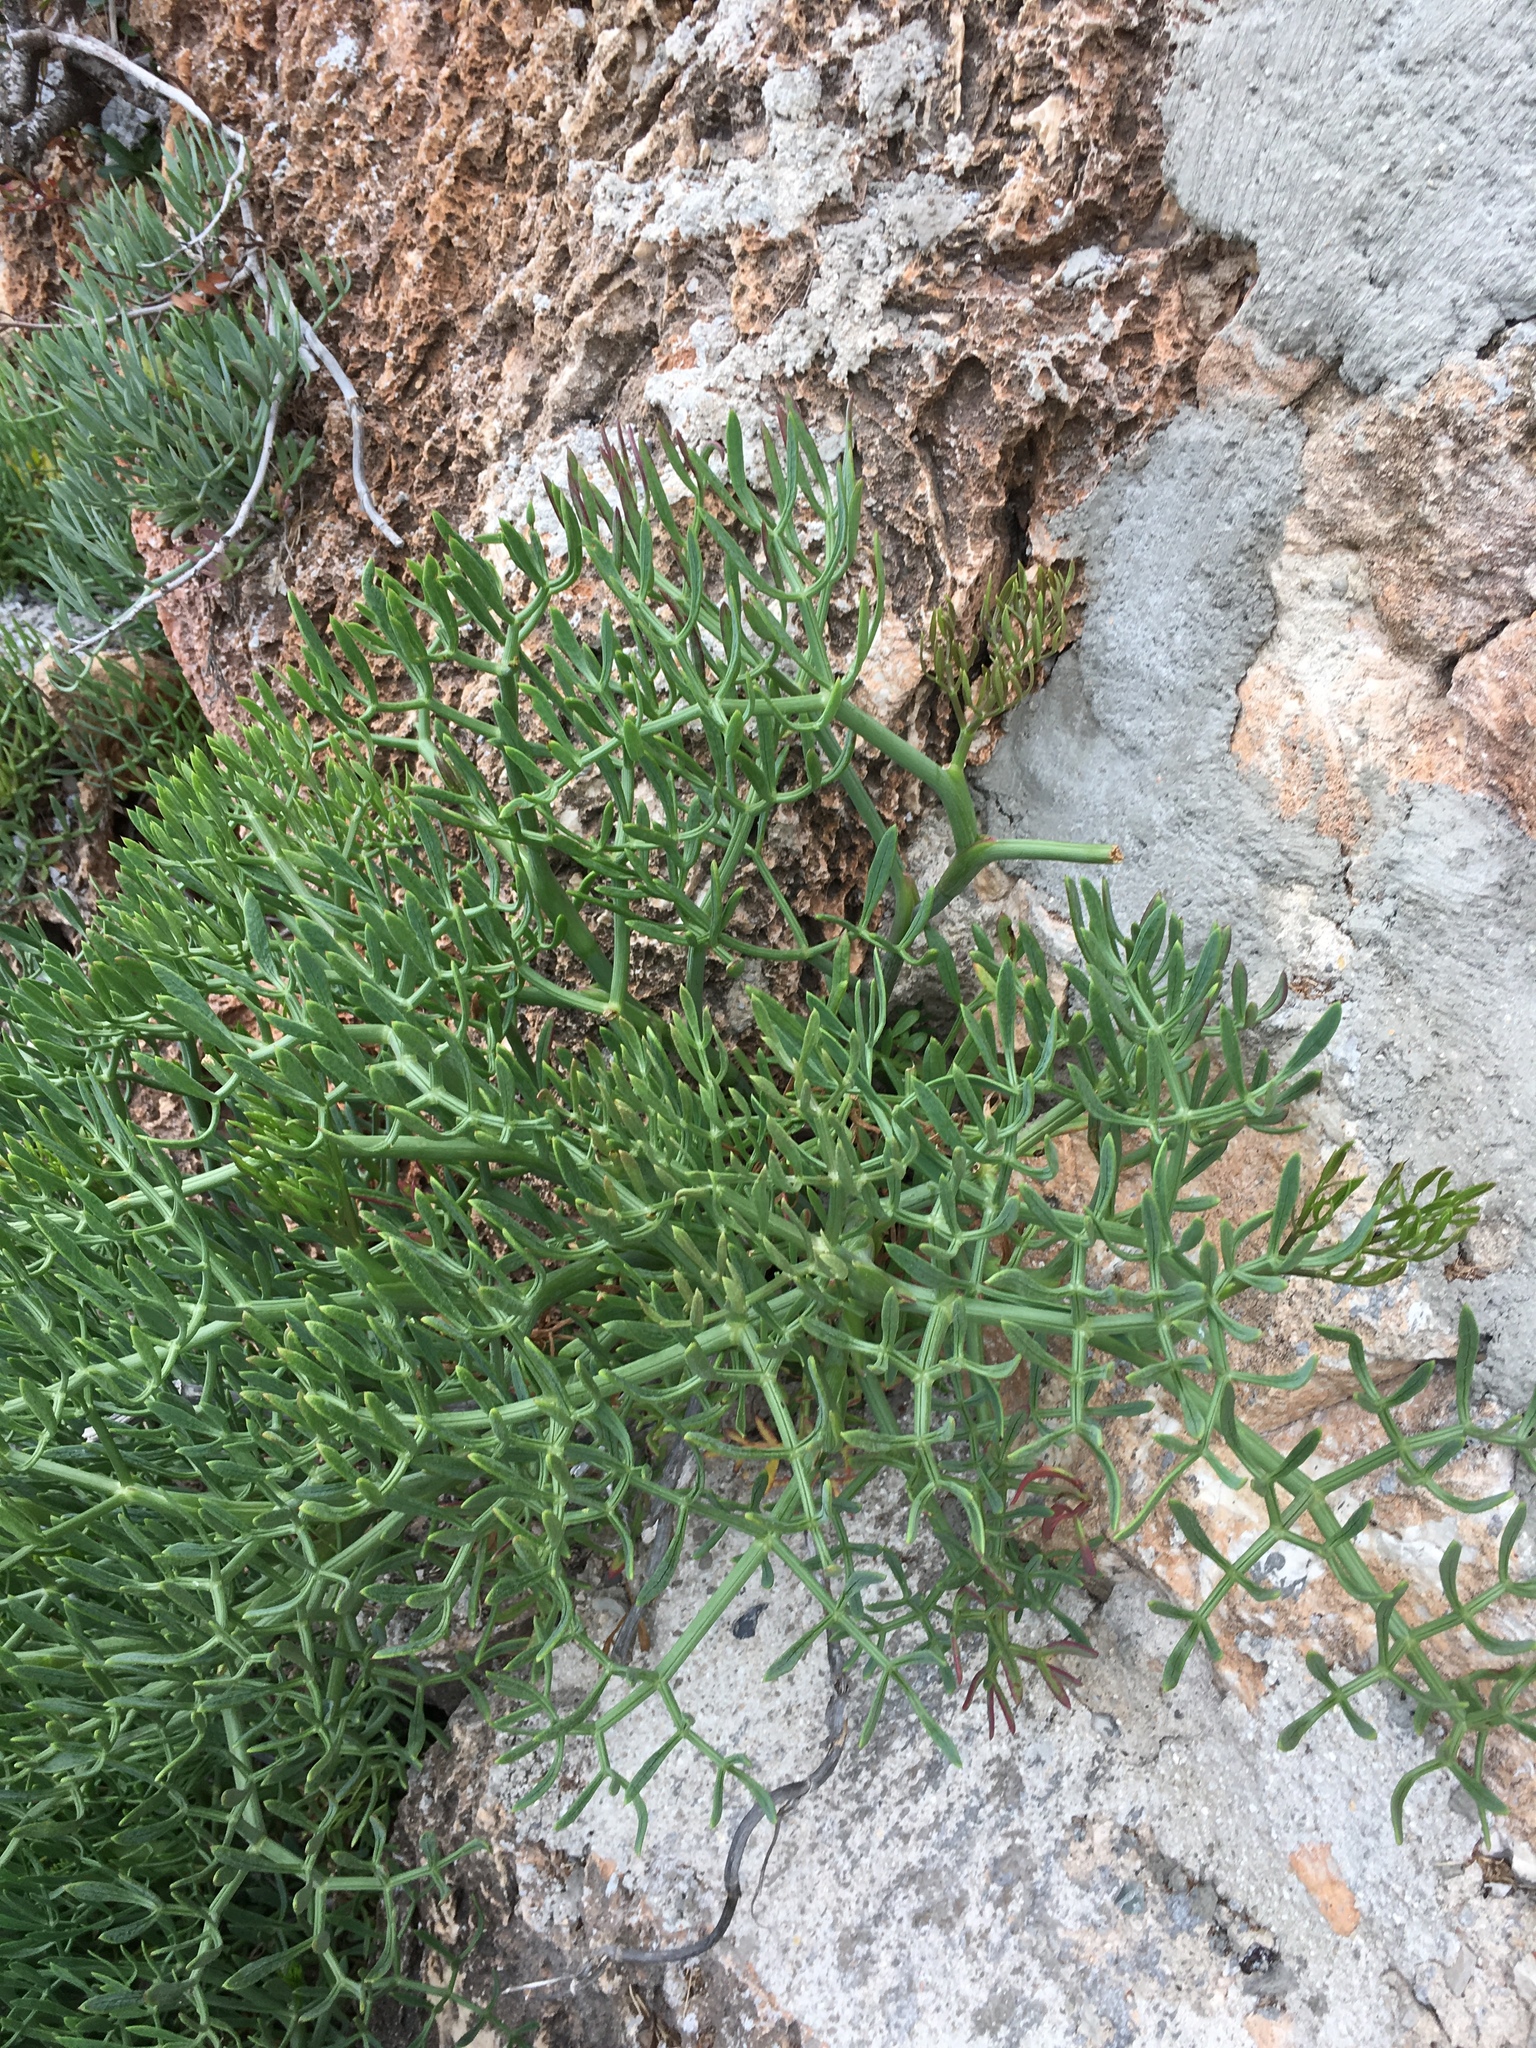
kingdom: Plantae
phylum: Tracheophyta
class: Magnoliopsida
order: Apiales
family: Apiaceae
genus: Crithmum
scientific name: Crithmum maritimum
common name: Rock samphire
